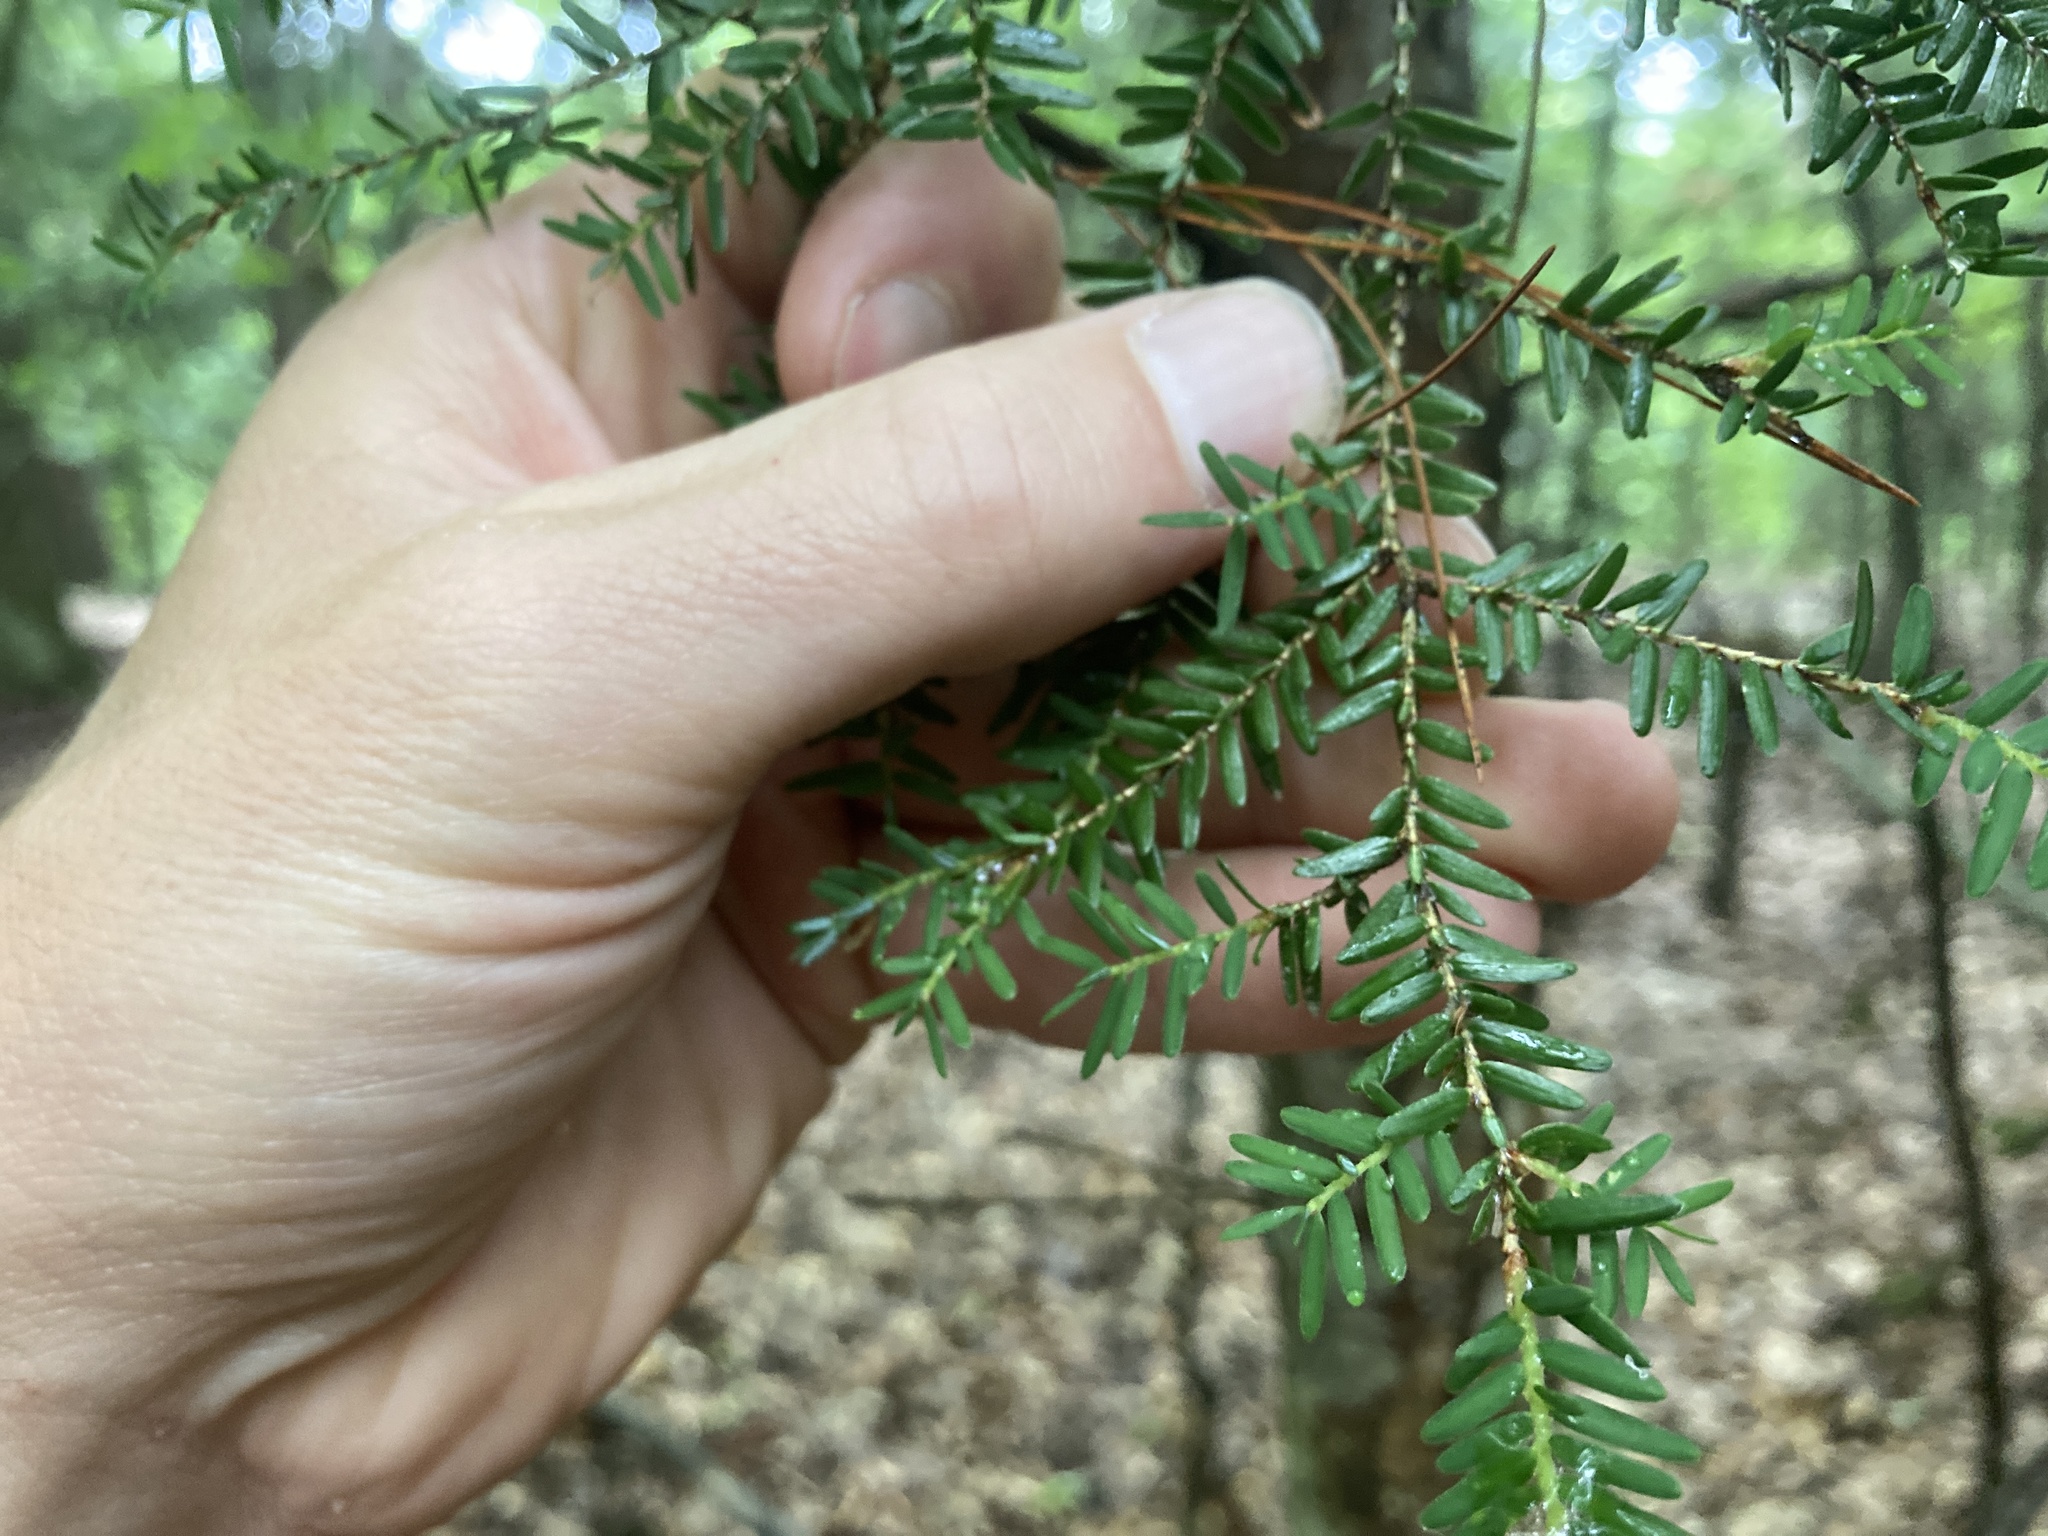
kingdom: Plantae
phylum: Tracheophyta
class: Pinopsida
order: Pinales
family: Pinaceae
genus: Tsuga
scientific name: Tsuga canadensis
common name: Eastern hemlock
